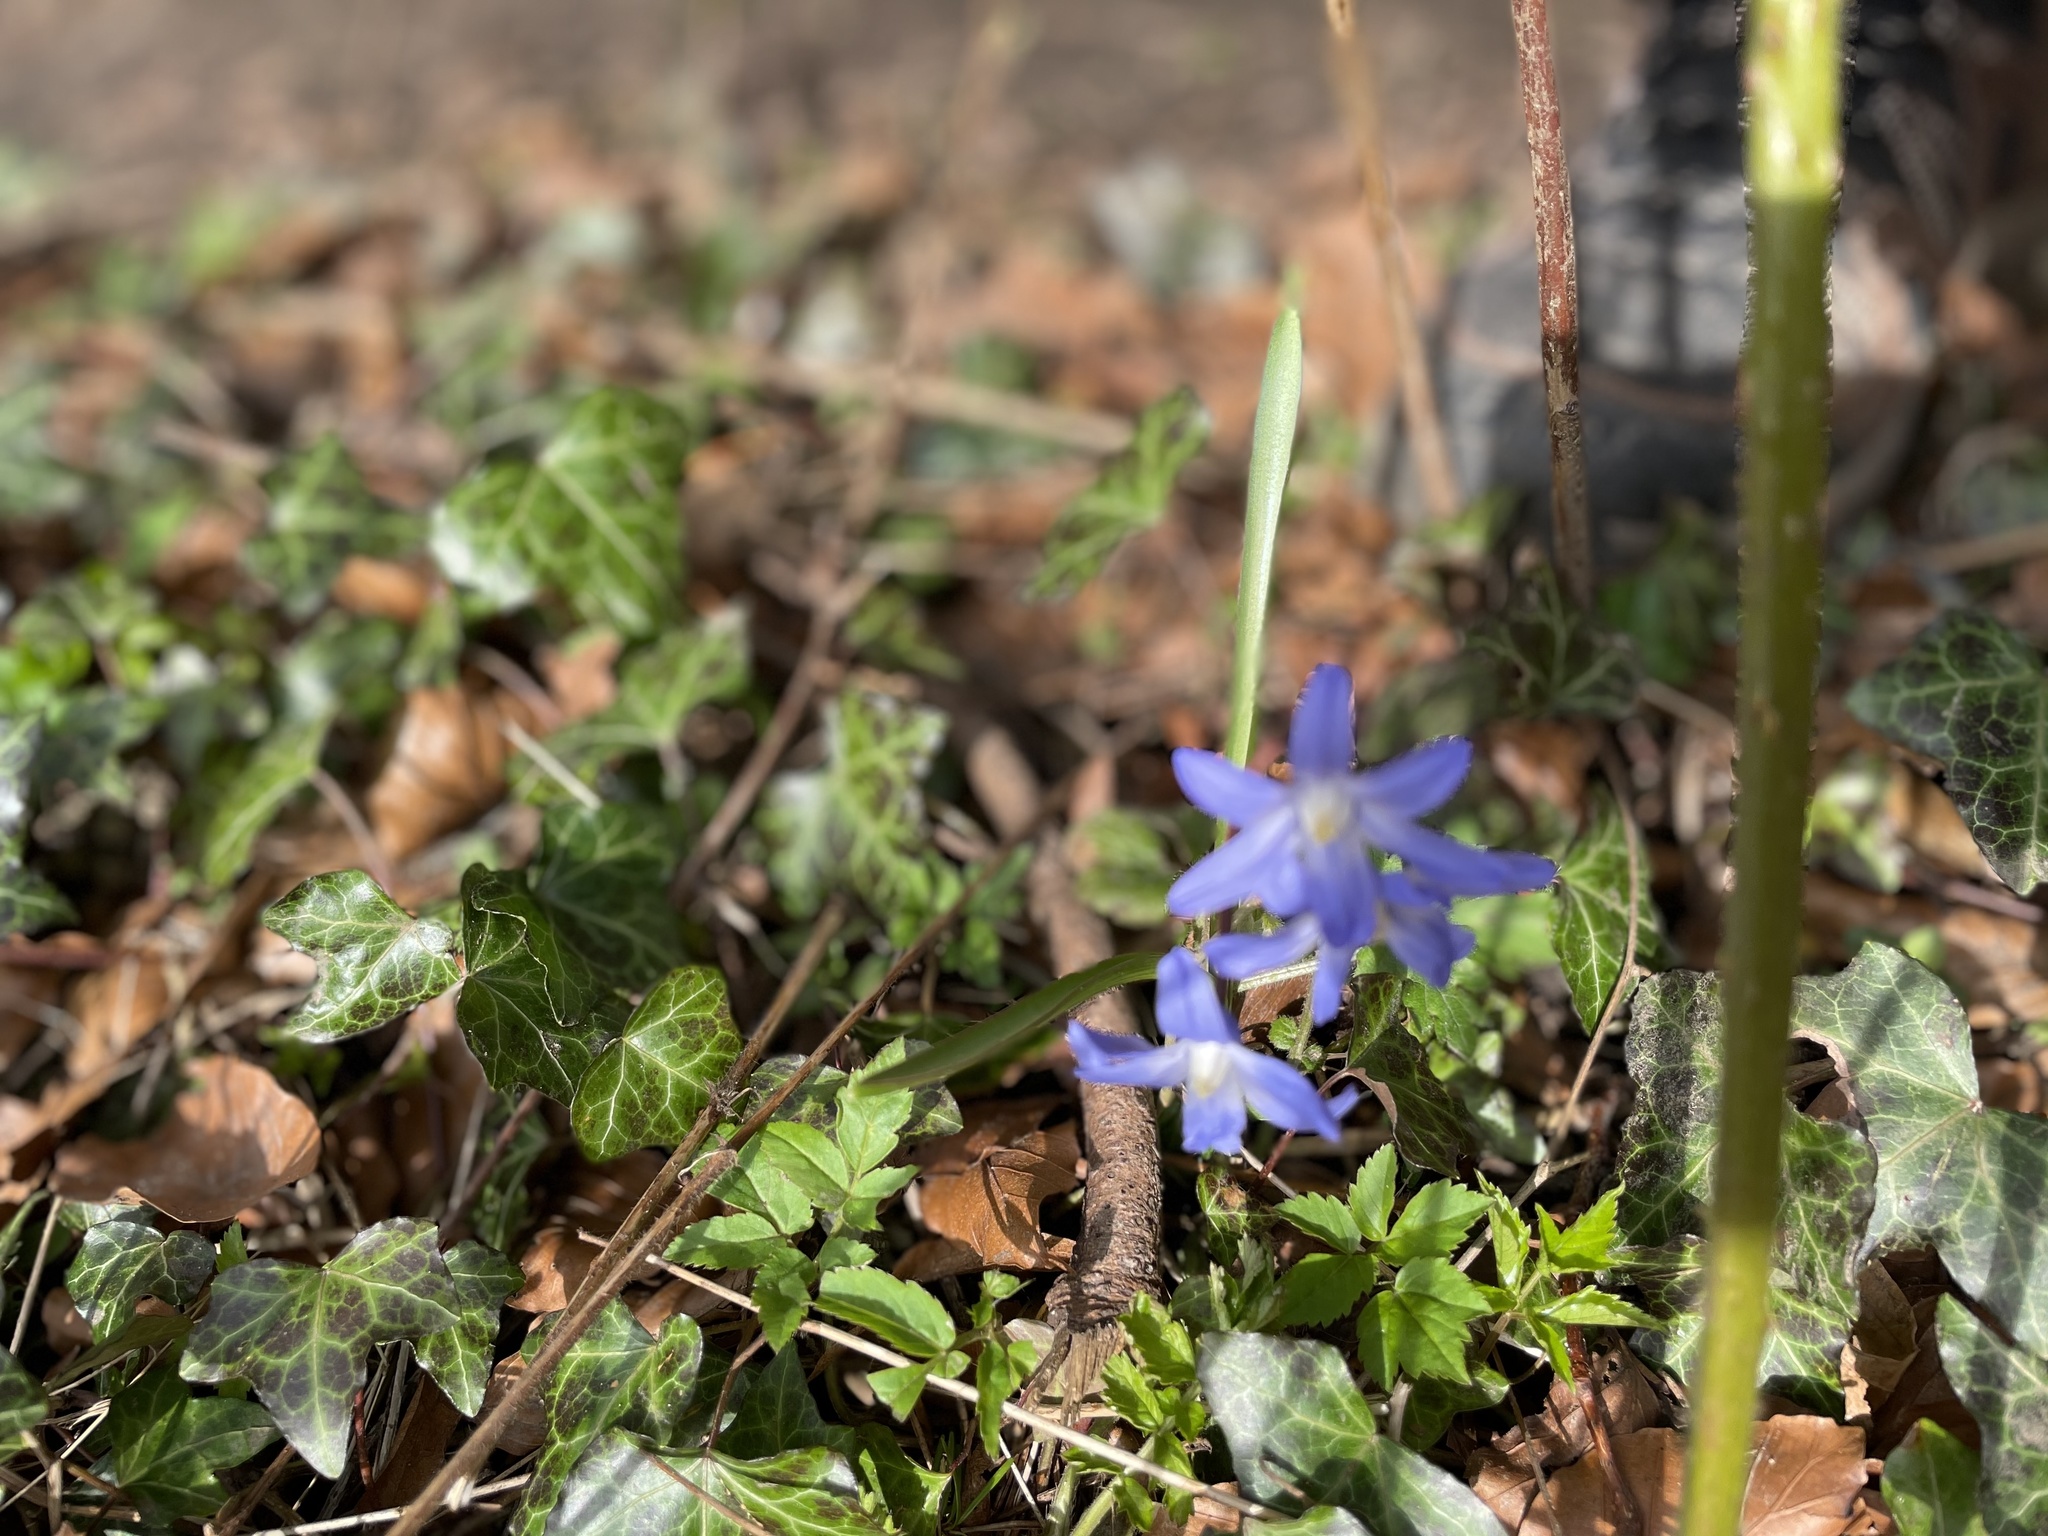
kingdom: Plantae
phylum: Tracheophyta
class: Liliopsida
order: Asparagales
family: Asparagaceae
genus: Scilla
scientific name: Scilla forbesii
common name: Glory-of-the-snow
